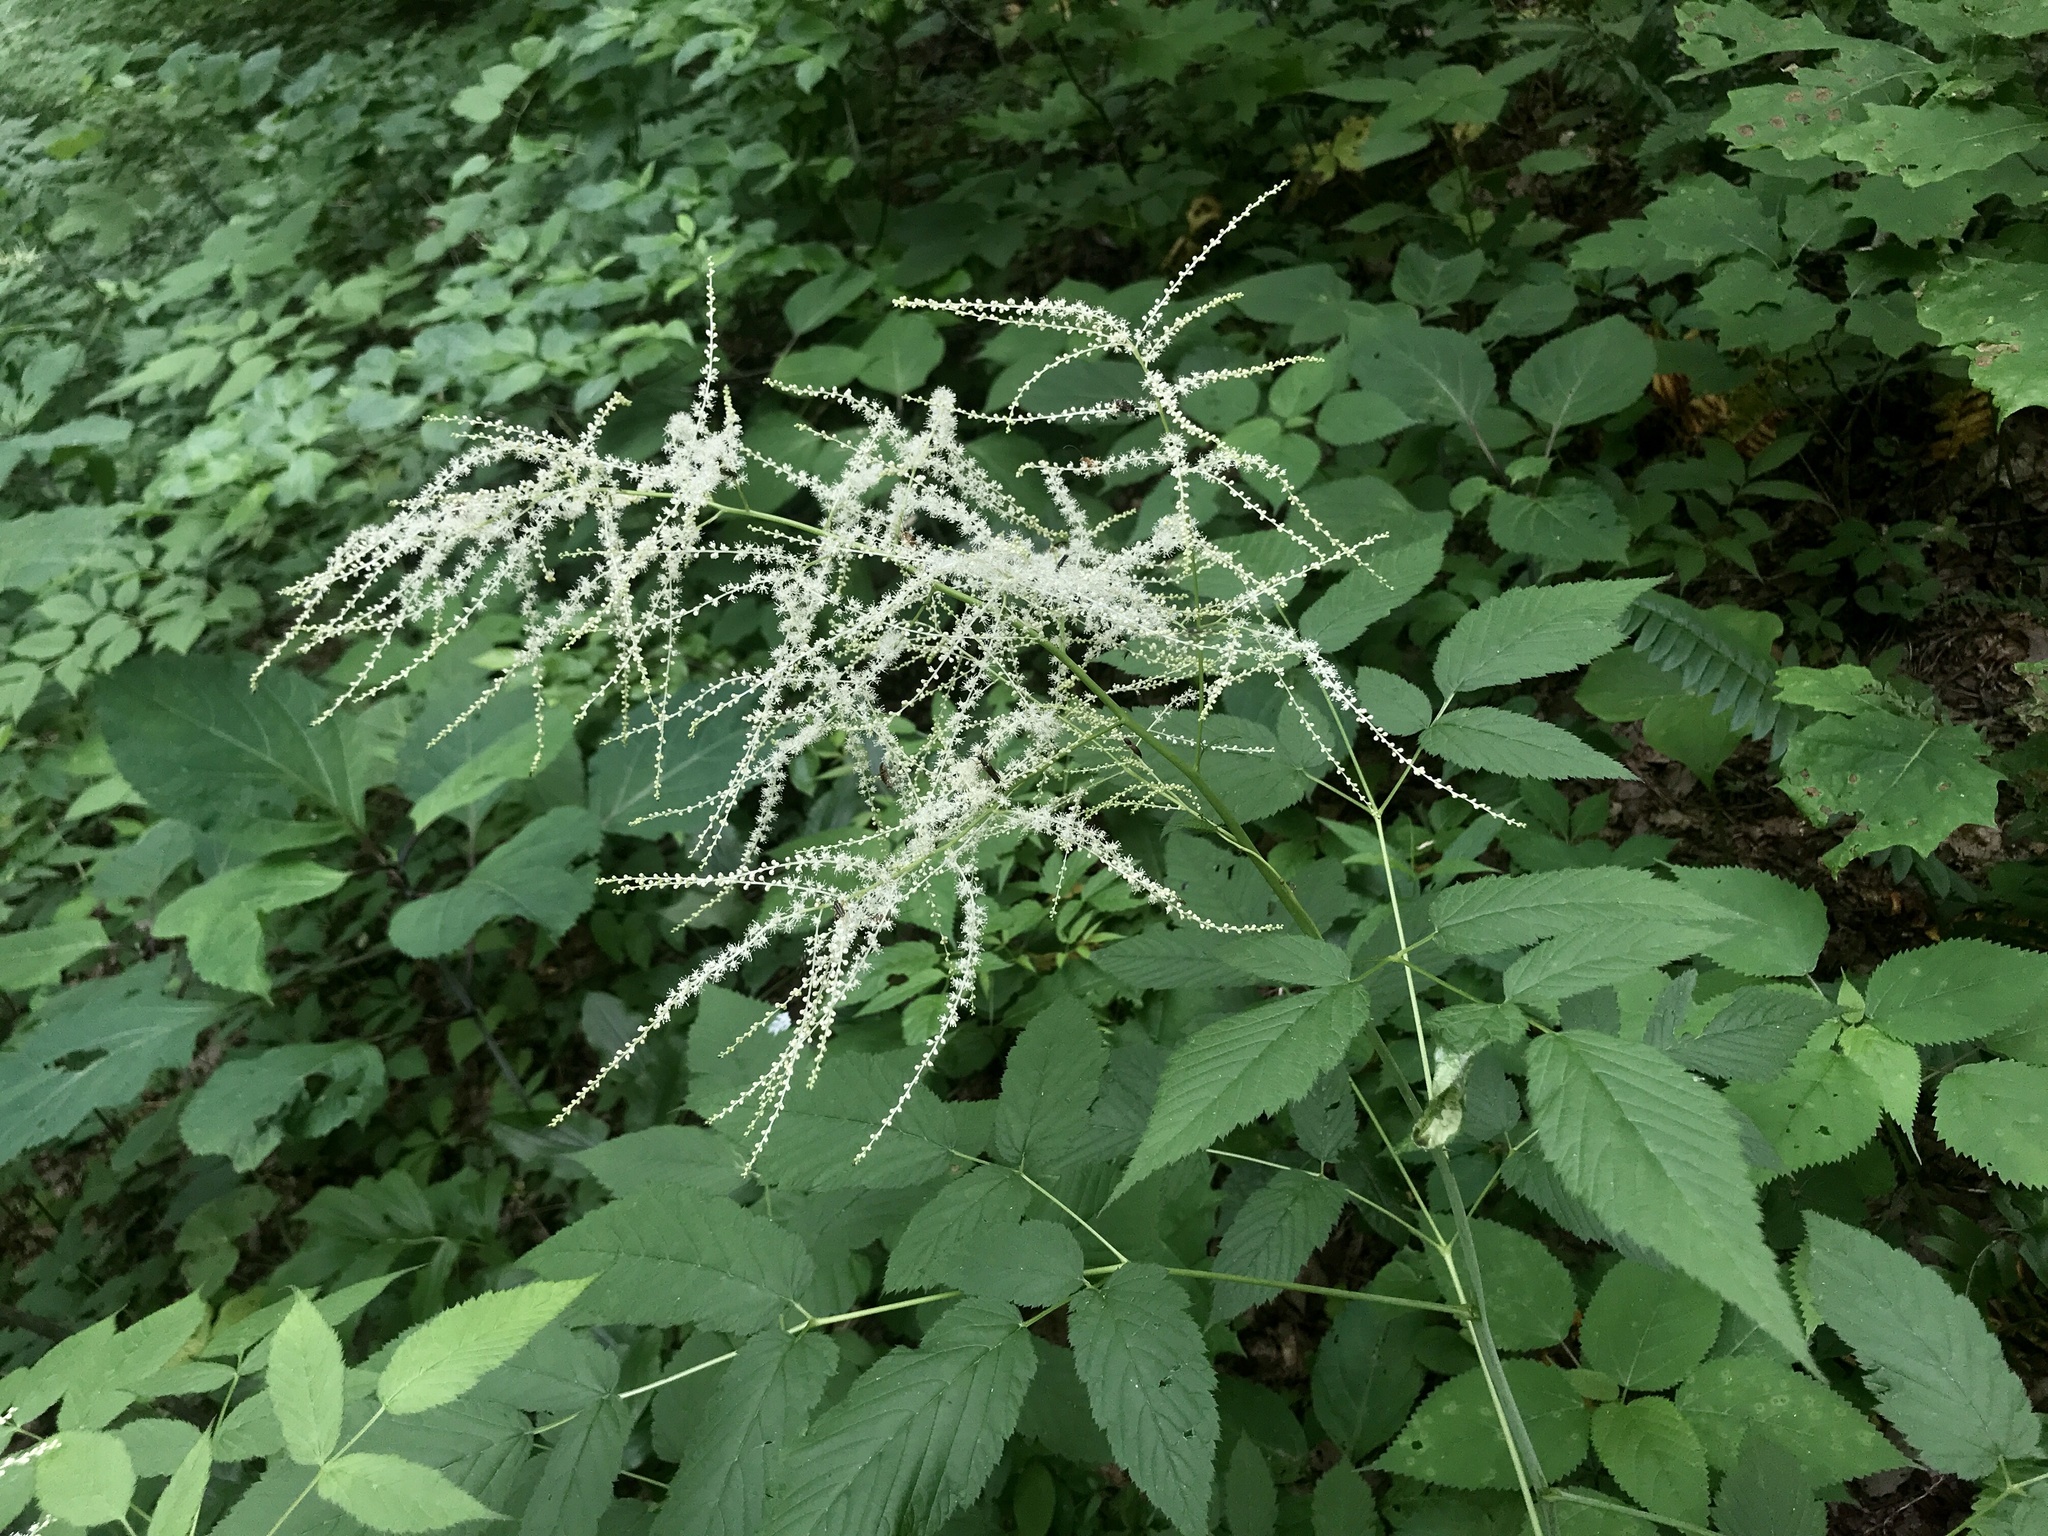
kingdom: Plantae
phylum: Tracheophyta
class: Magnoliopsida
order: Rosales
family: Rosaceae
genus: Aruncus
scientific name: Aruncus dioicus
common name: Buck's-beard
